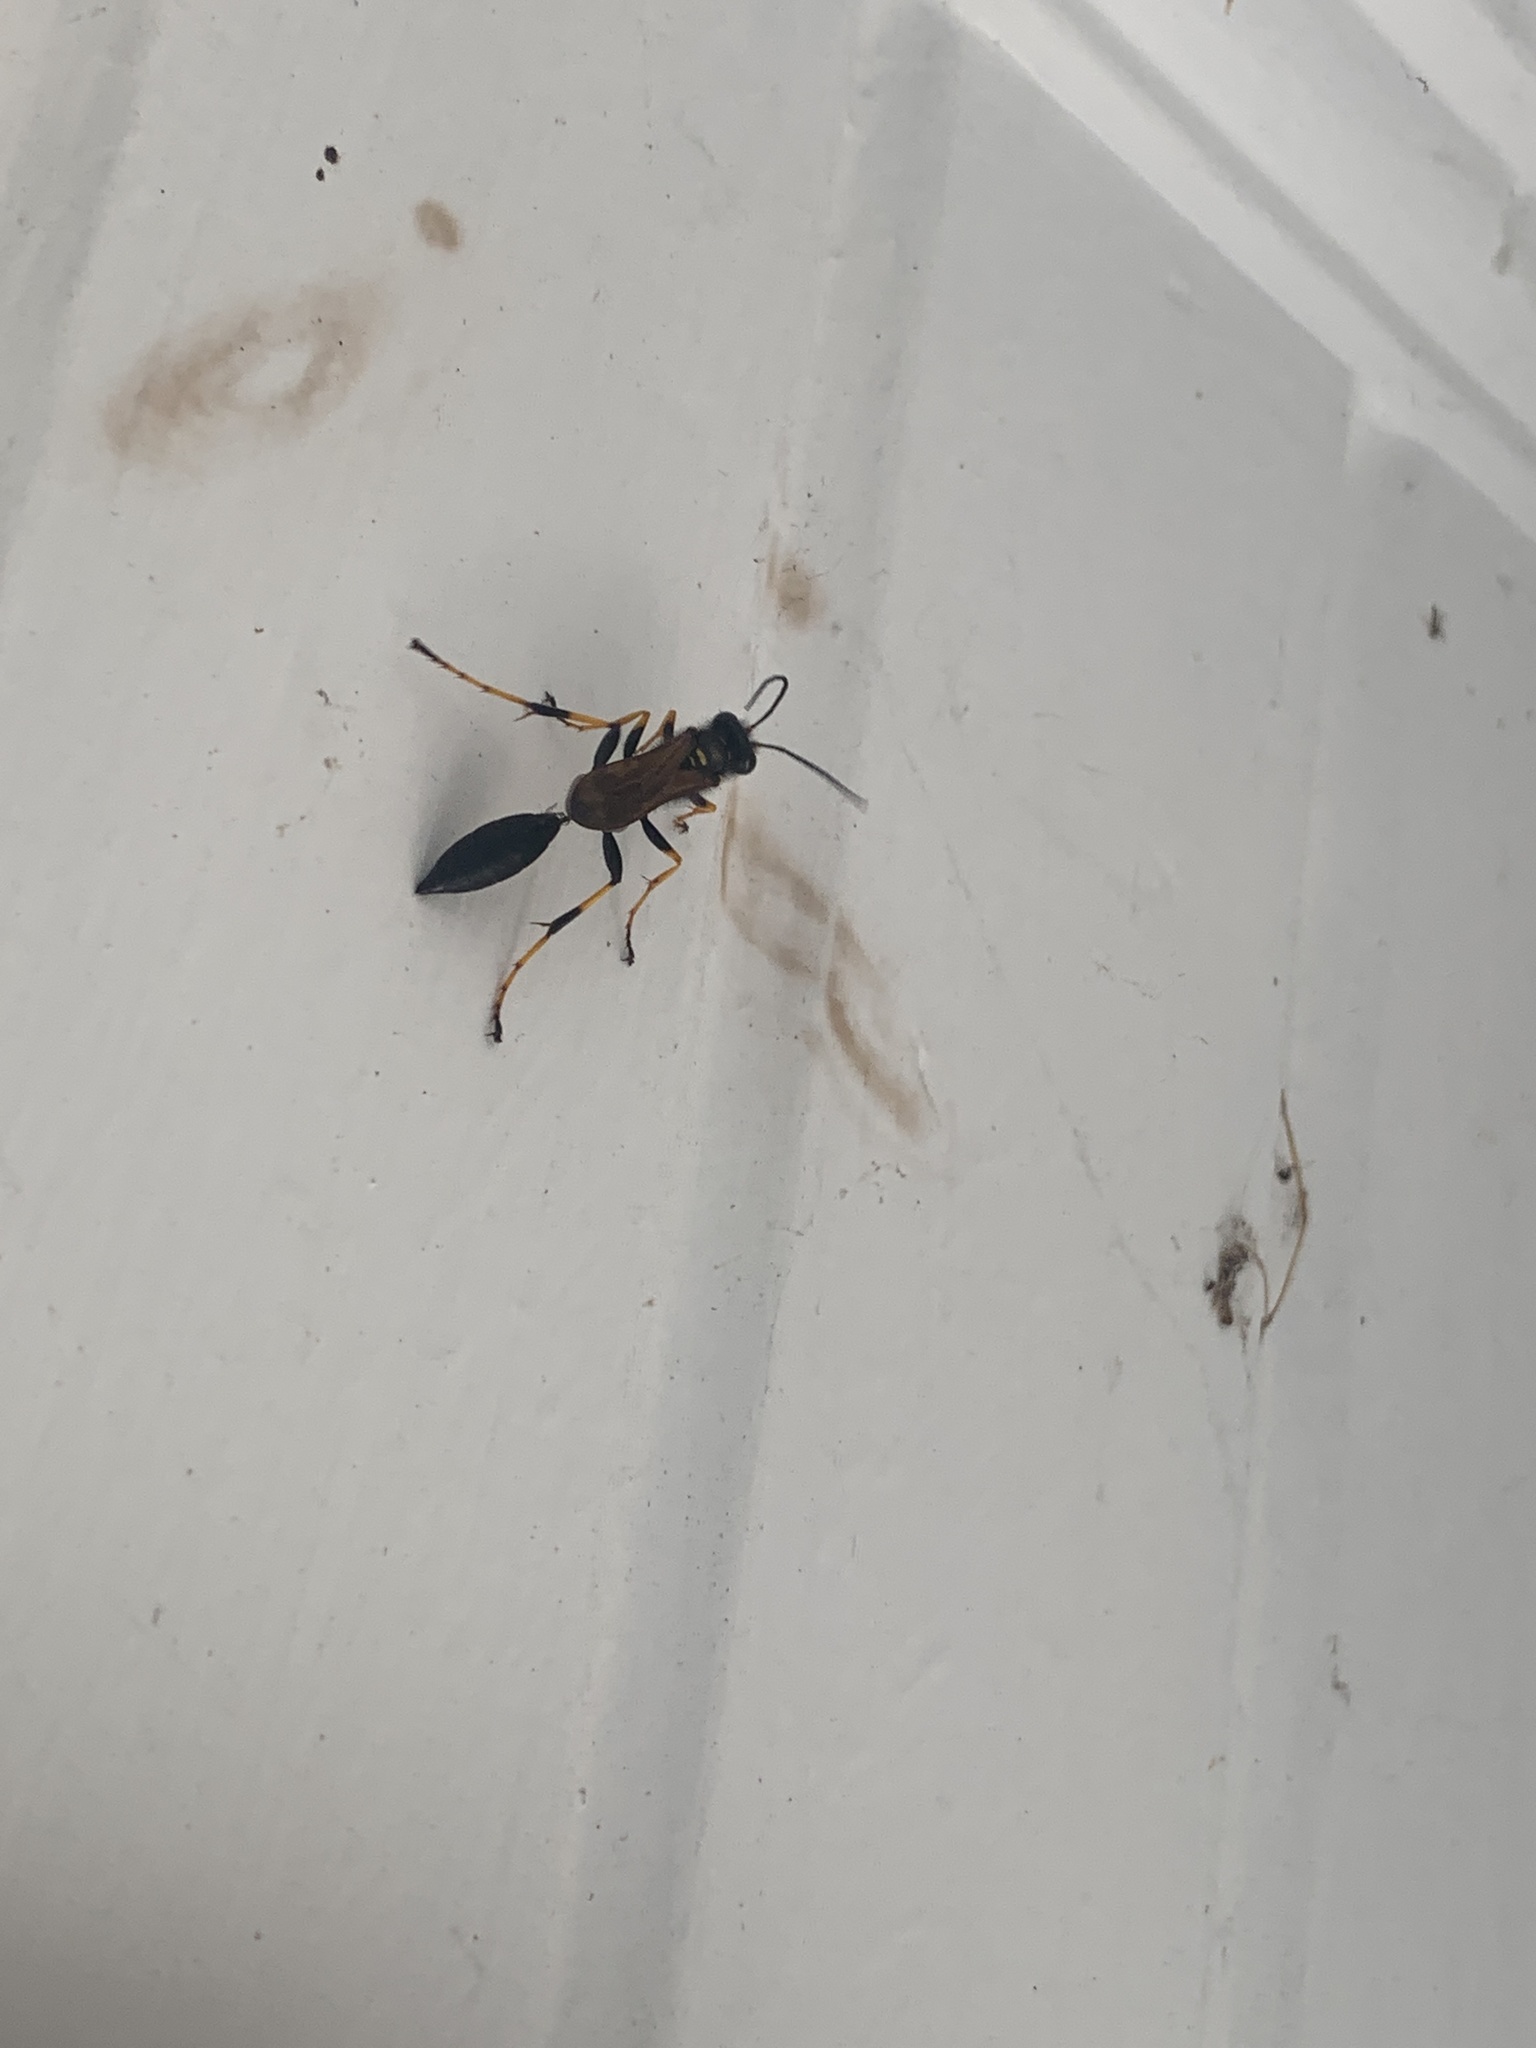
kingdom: Animalia
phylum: Arthropoda
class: Insecta
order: Hymenoptera
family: Sphecidae
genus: Sceliphron
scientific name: Sceliphron caementarium
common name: Mud dauber
